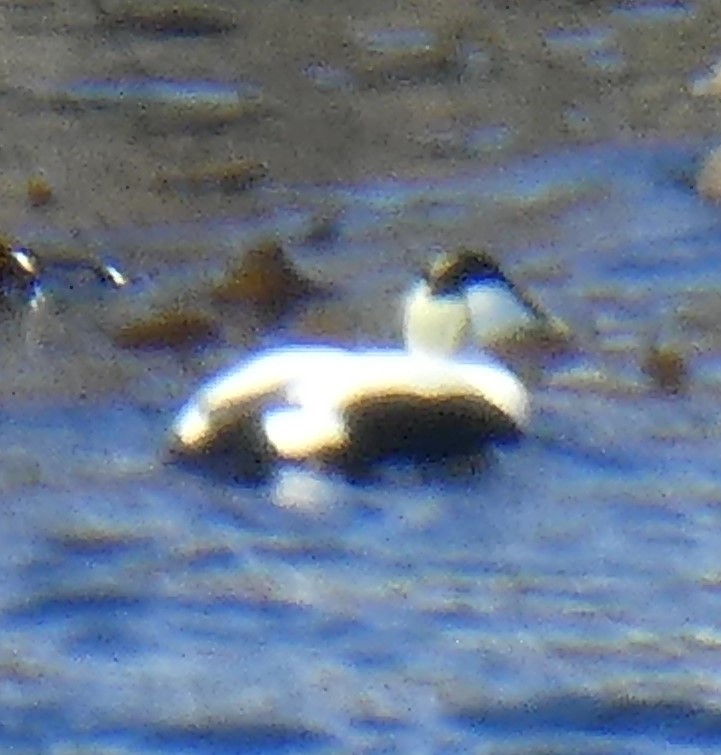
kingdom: Animalia
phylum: Chordata
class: Aves
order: Anseriformes
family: Anatidae
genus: Somateria
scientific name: Somateria mollissima
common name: Common eider
